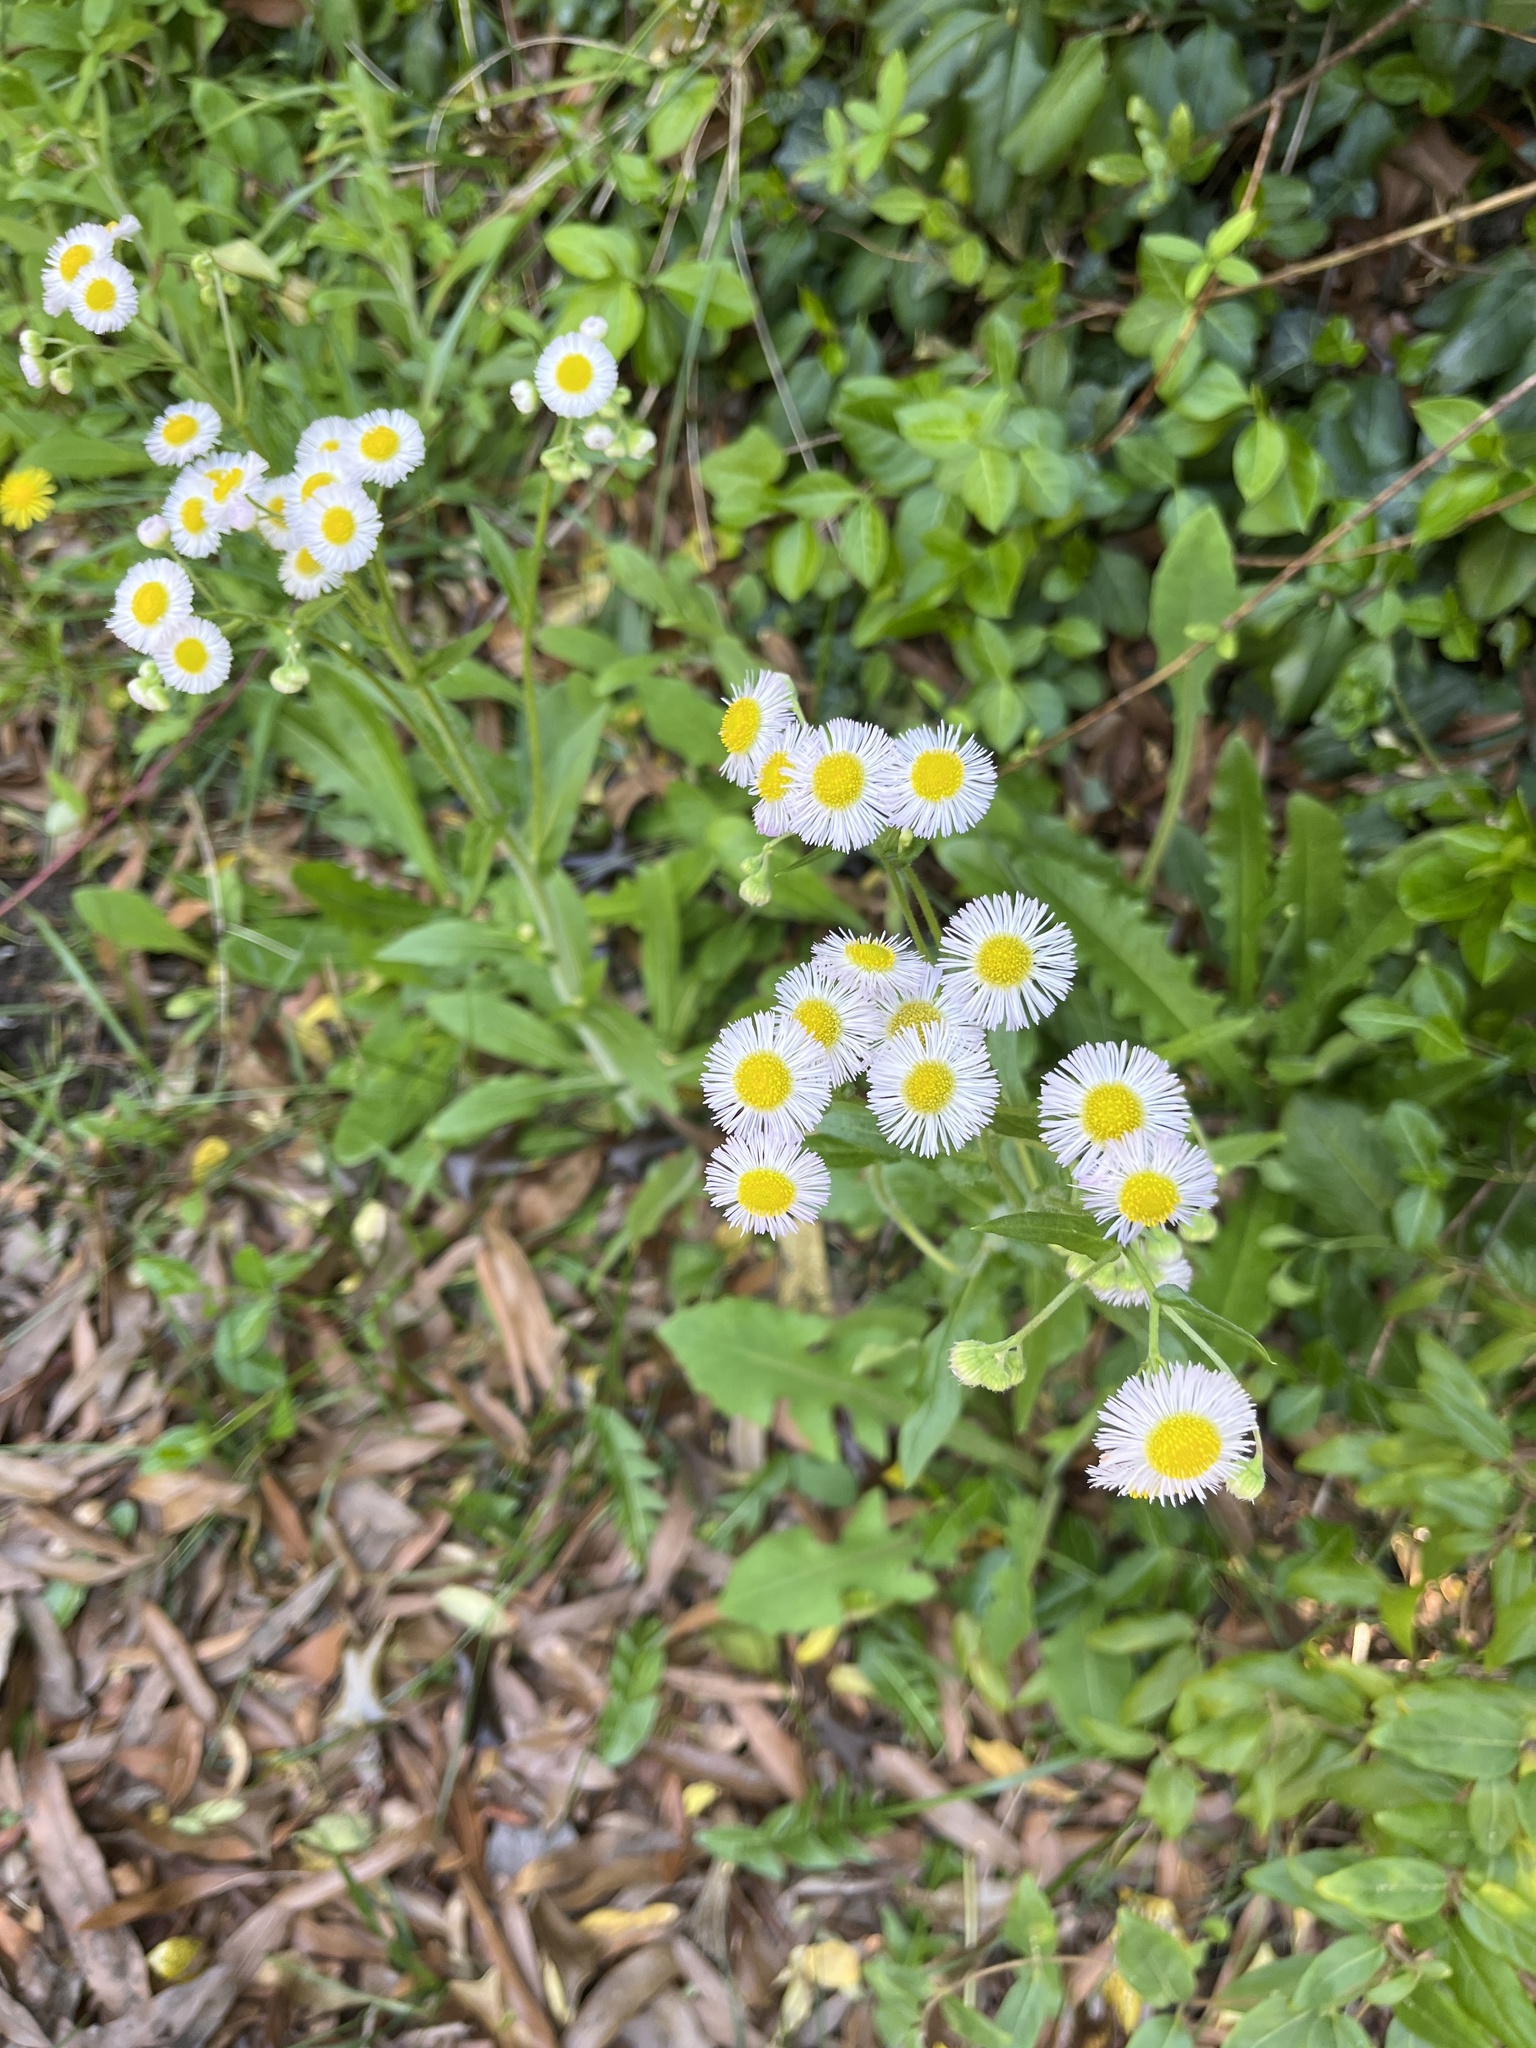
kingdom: Plantae
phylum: Tracheophyta
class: Magnoliopsida
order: Asterales
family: Asteraceae
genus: Erigeron
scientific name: Erigeron philadelphicus
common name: Robin's-plantain
